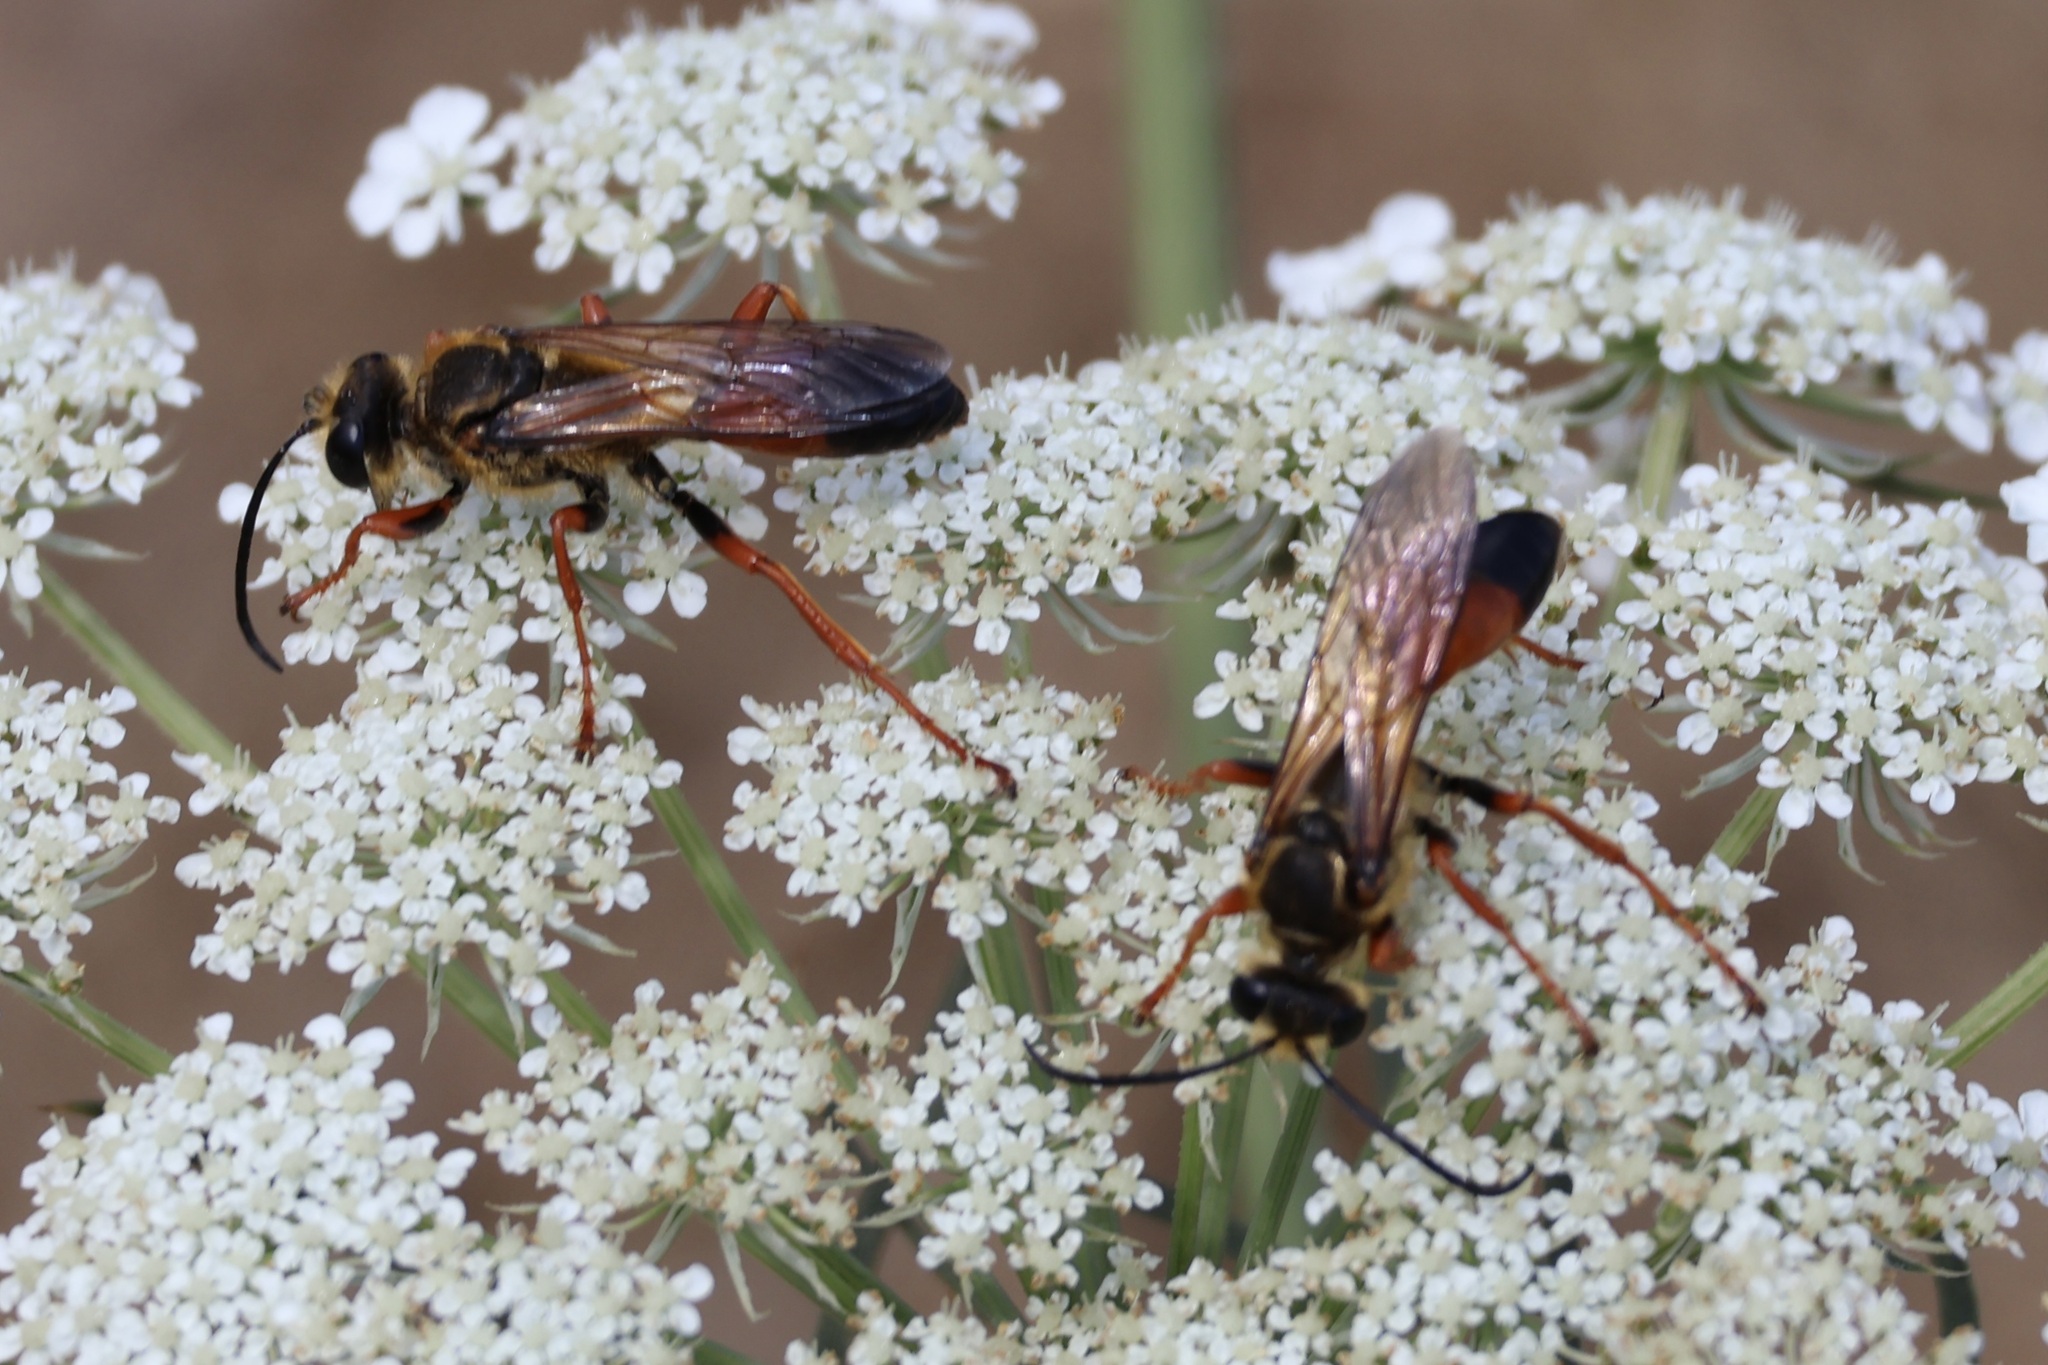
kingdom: Animalia
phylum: Arthropoda
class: Insecta
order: Hymenoptera
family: Sphecidae
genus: Sphex
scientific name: Sphex ichneumoneus
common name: Great golden digger wasp
